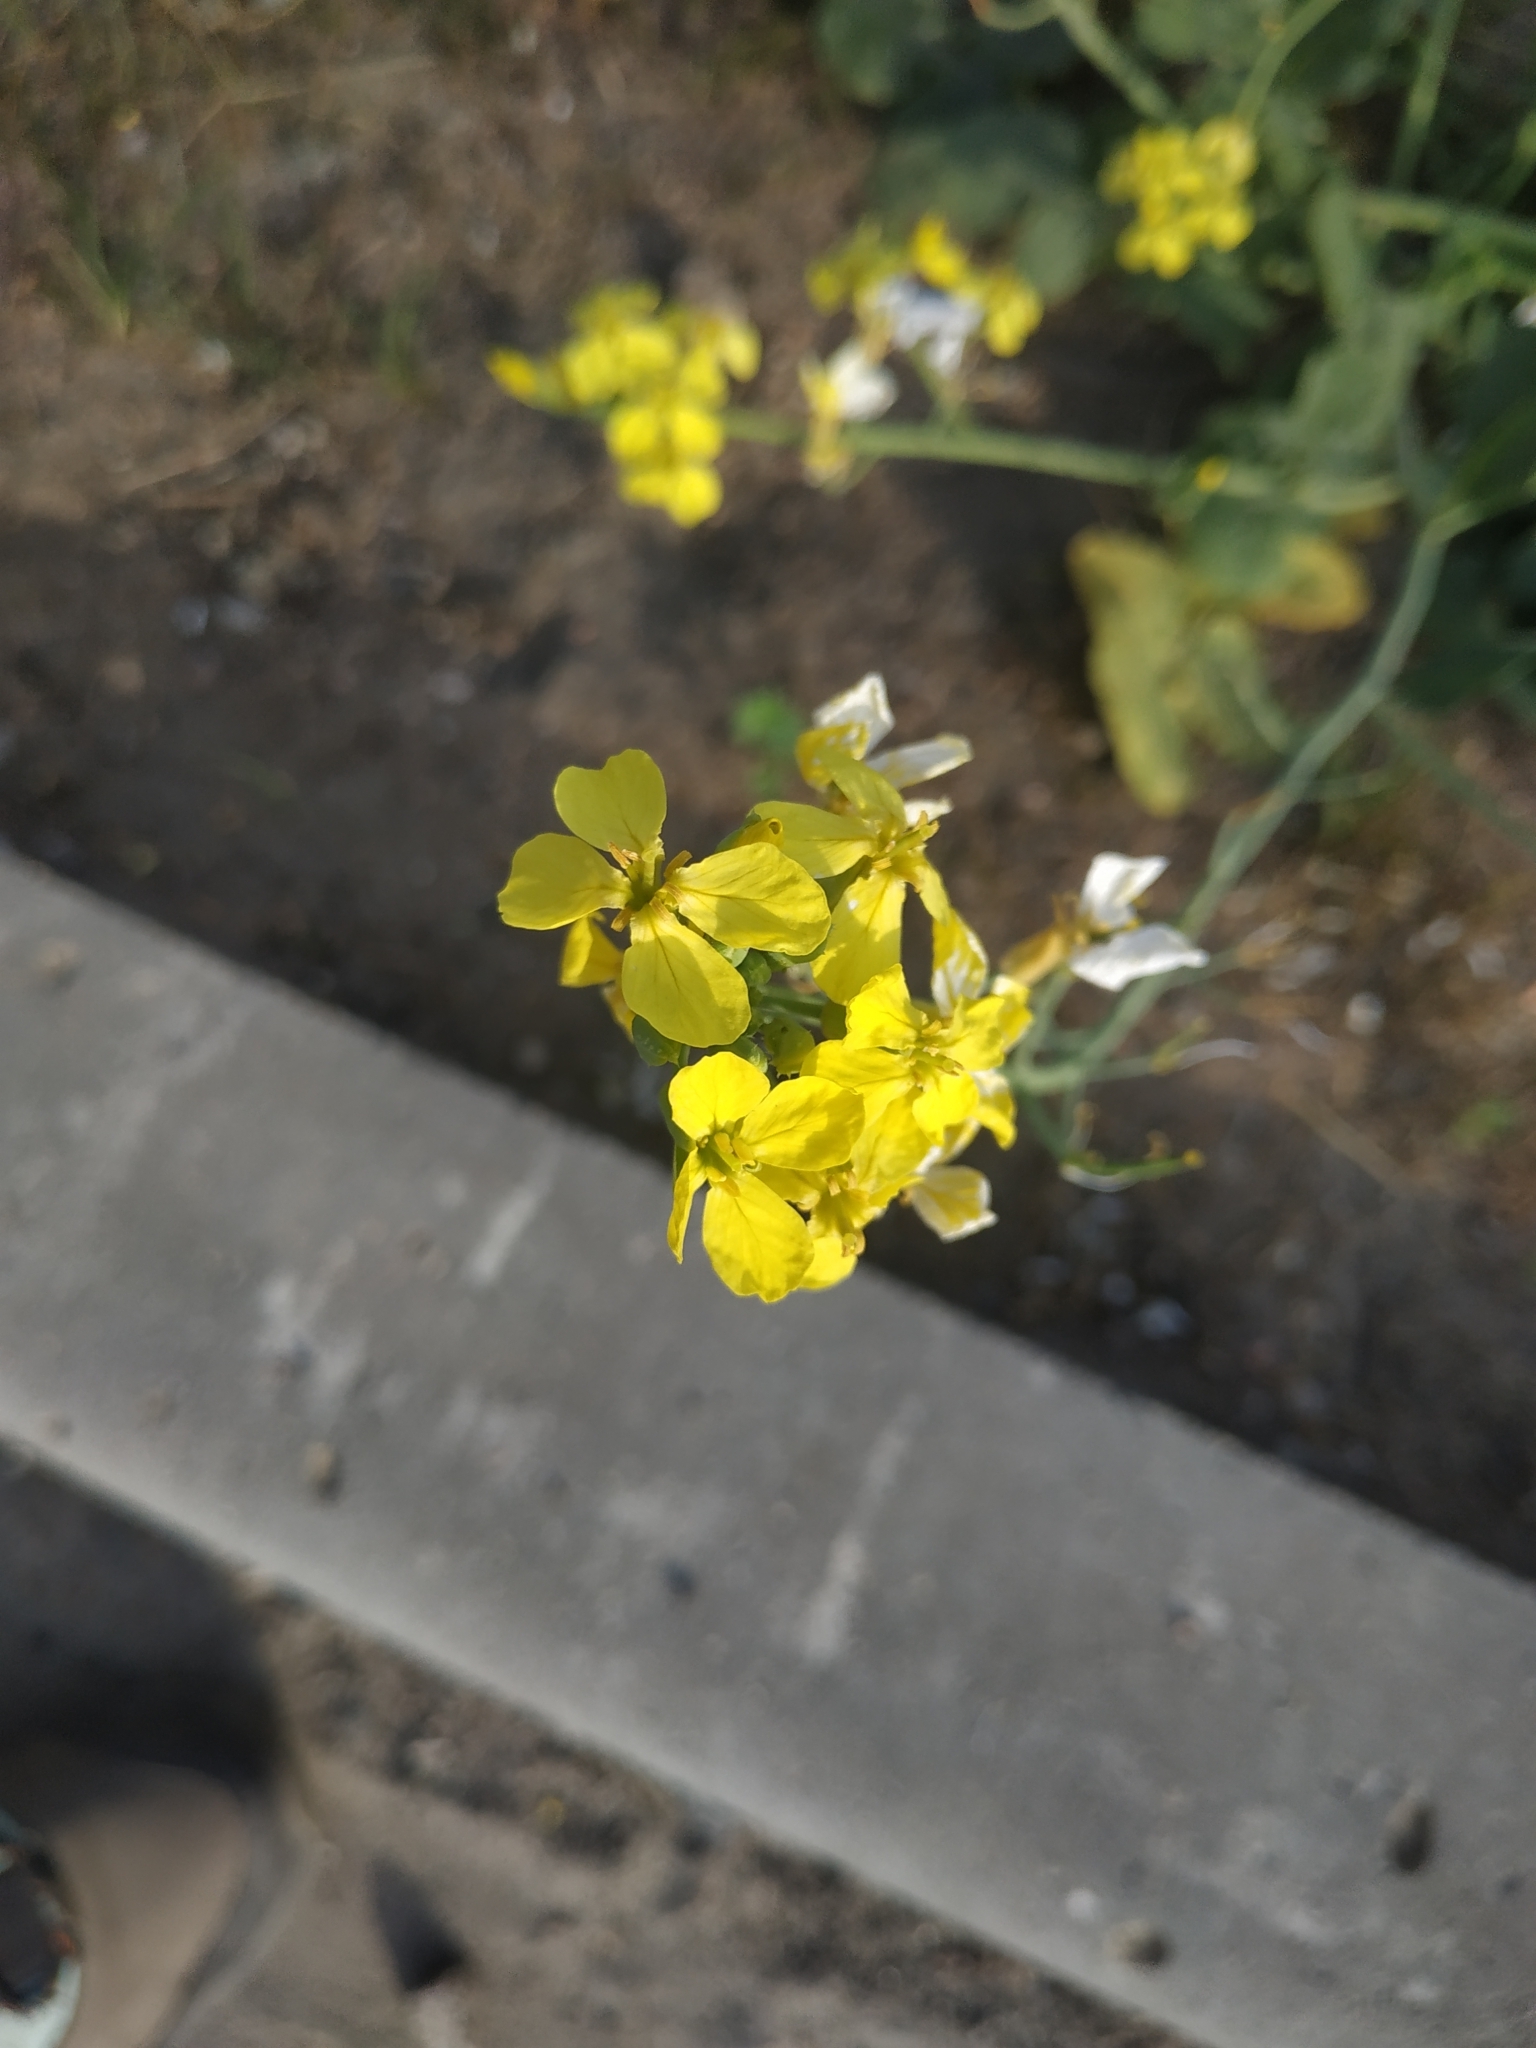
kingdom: Plantae
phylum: Tracheophyta
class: Magnoliopsida
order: Brassicales
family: Brassicaceae
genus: Raphanus
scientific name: Raphanus raphanistrum
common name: Wild radish
